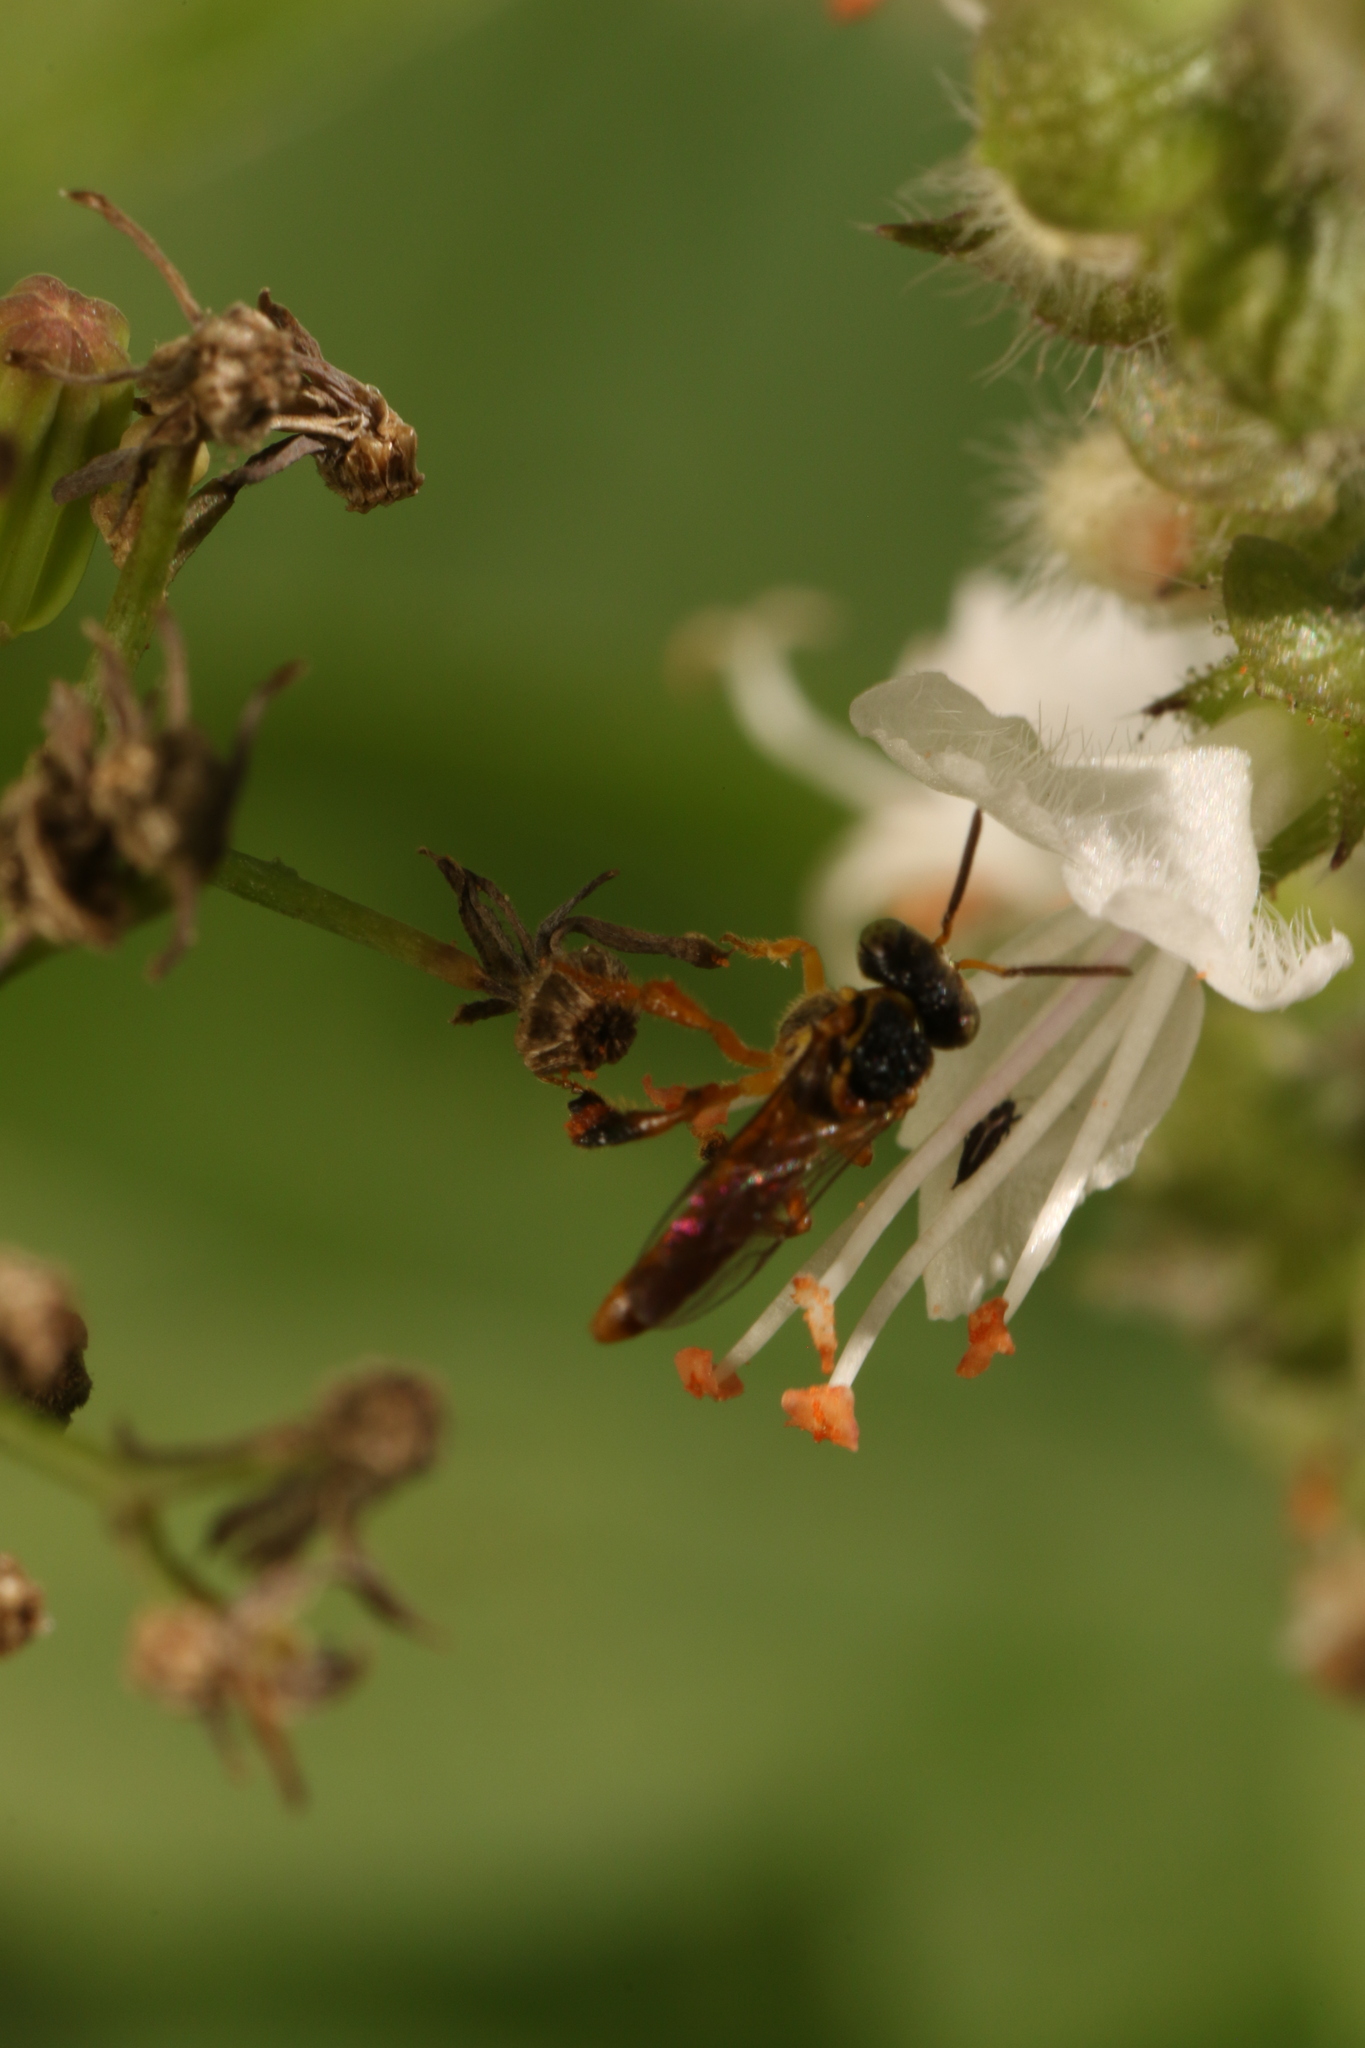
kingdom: Animalia
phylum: Arthropoda
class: Insecta
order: Hymenoptera
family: Apidae
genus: Tetragonisca
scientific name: Tetragonisca angustula
